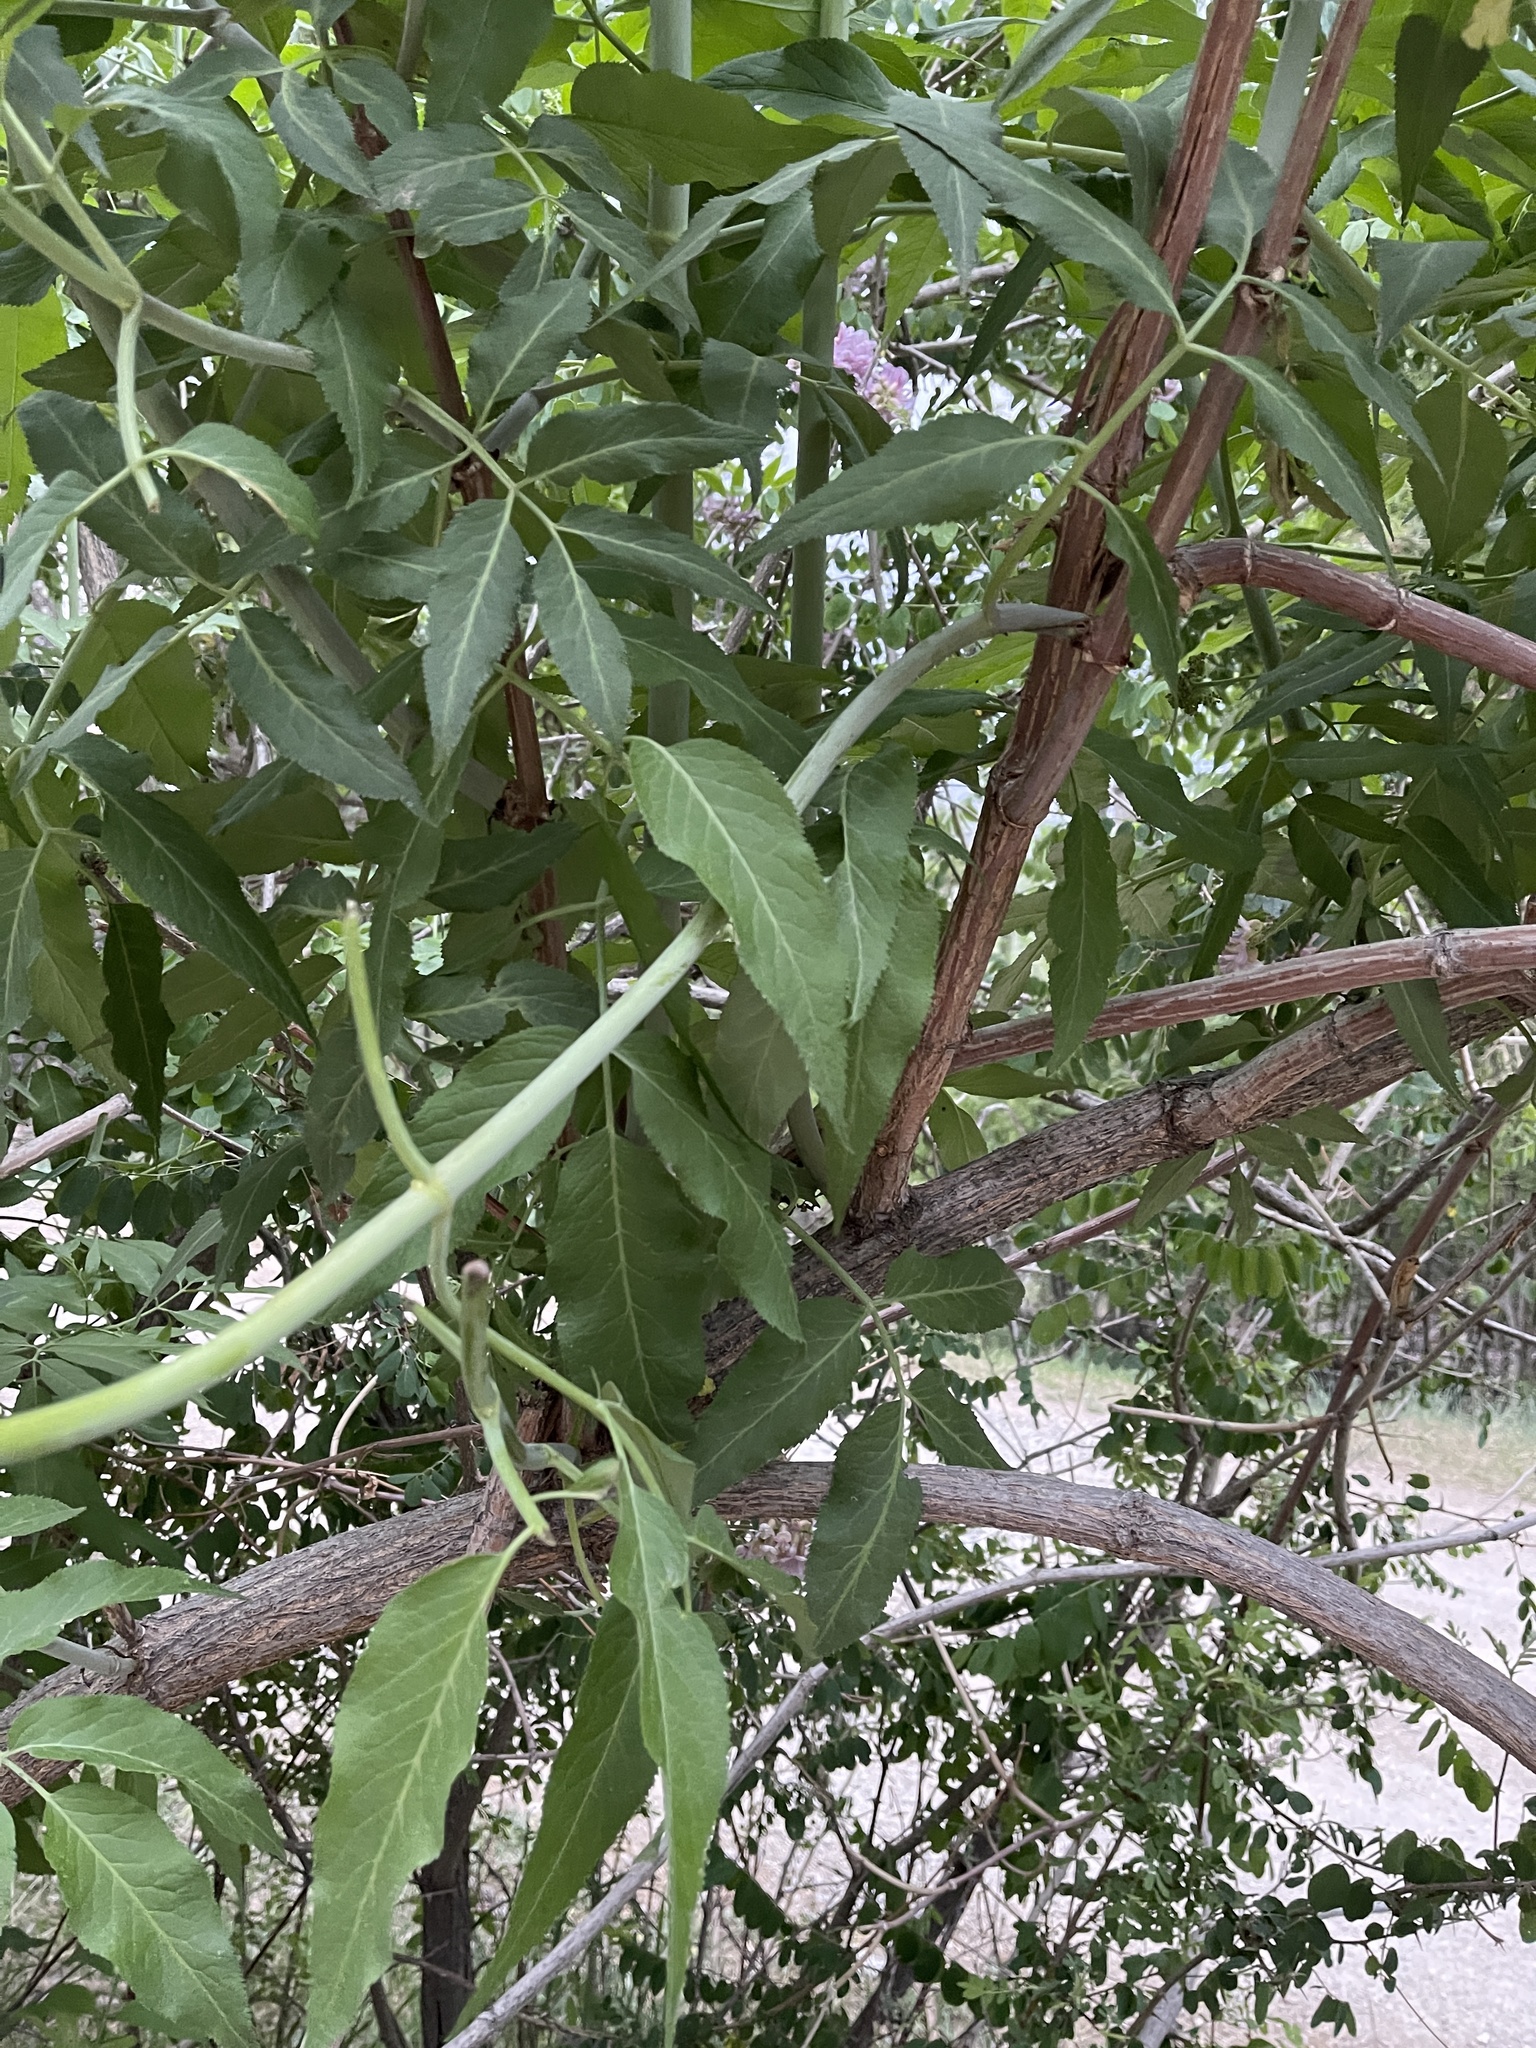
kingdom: Plantae
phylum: Tracheophyta
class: Magnoliopsida
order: Dipsacales
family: Viburnaceae
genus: Sambucus
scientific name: Sambucus cerulea
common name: Blue elder
